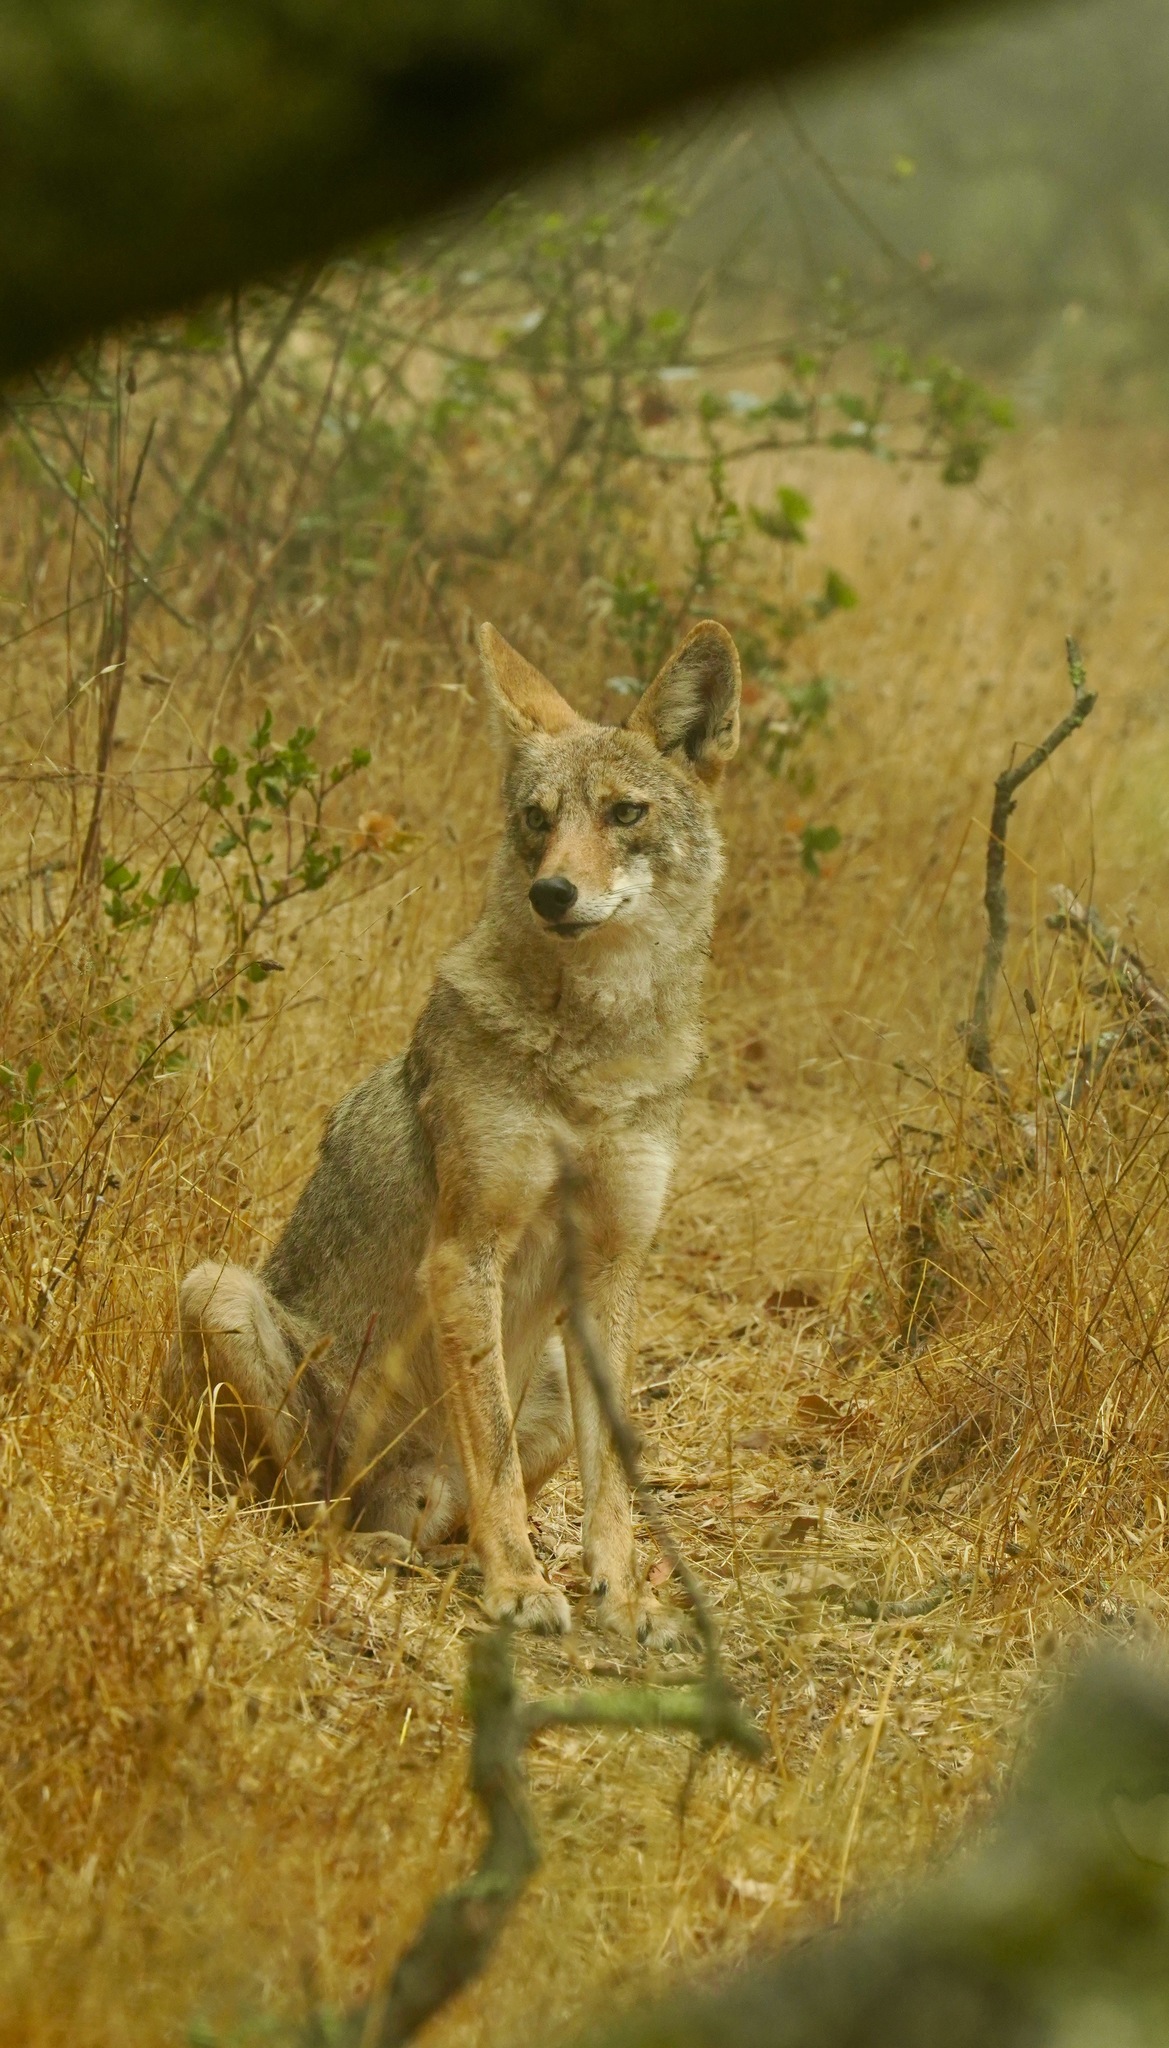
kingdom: Animalia
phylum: Chordata
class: Mammalia
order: Carnivora
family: Canidae
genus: Canis
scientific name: Canis latrans
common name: Coyote
